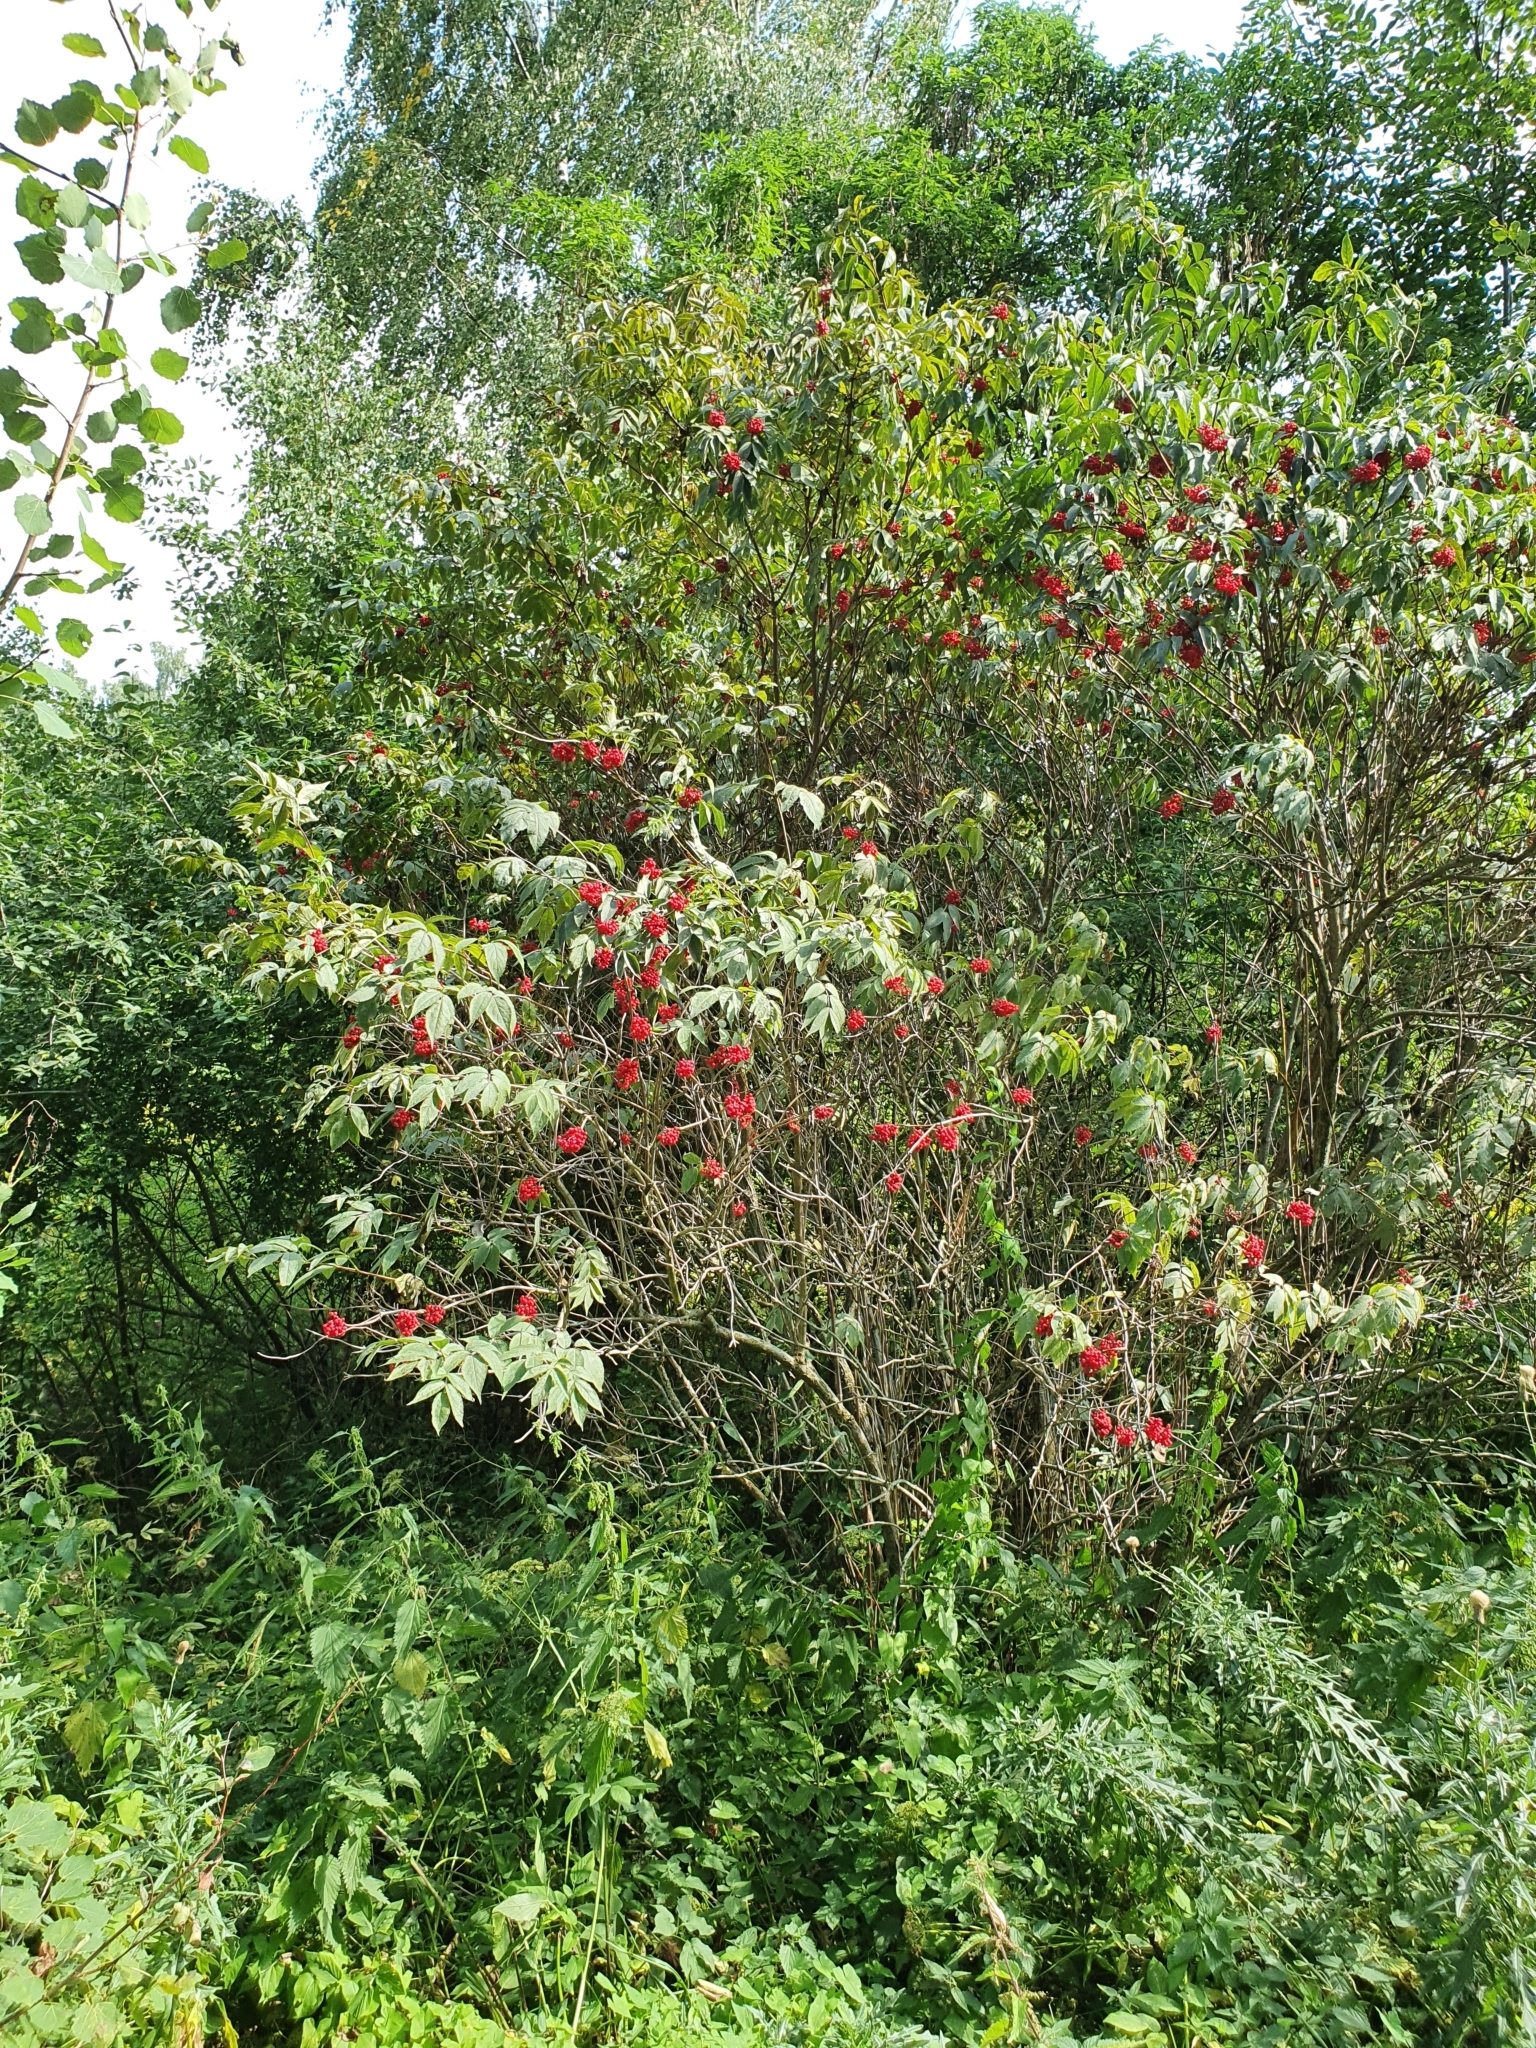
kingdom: Plantae
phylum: Tracheophyta
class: Magnoliopsida
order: Dipsacales
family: Viburnaceae
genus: Sambucus
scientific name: Sambucus racemosa
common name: Red-berried elder
